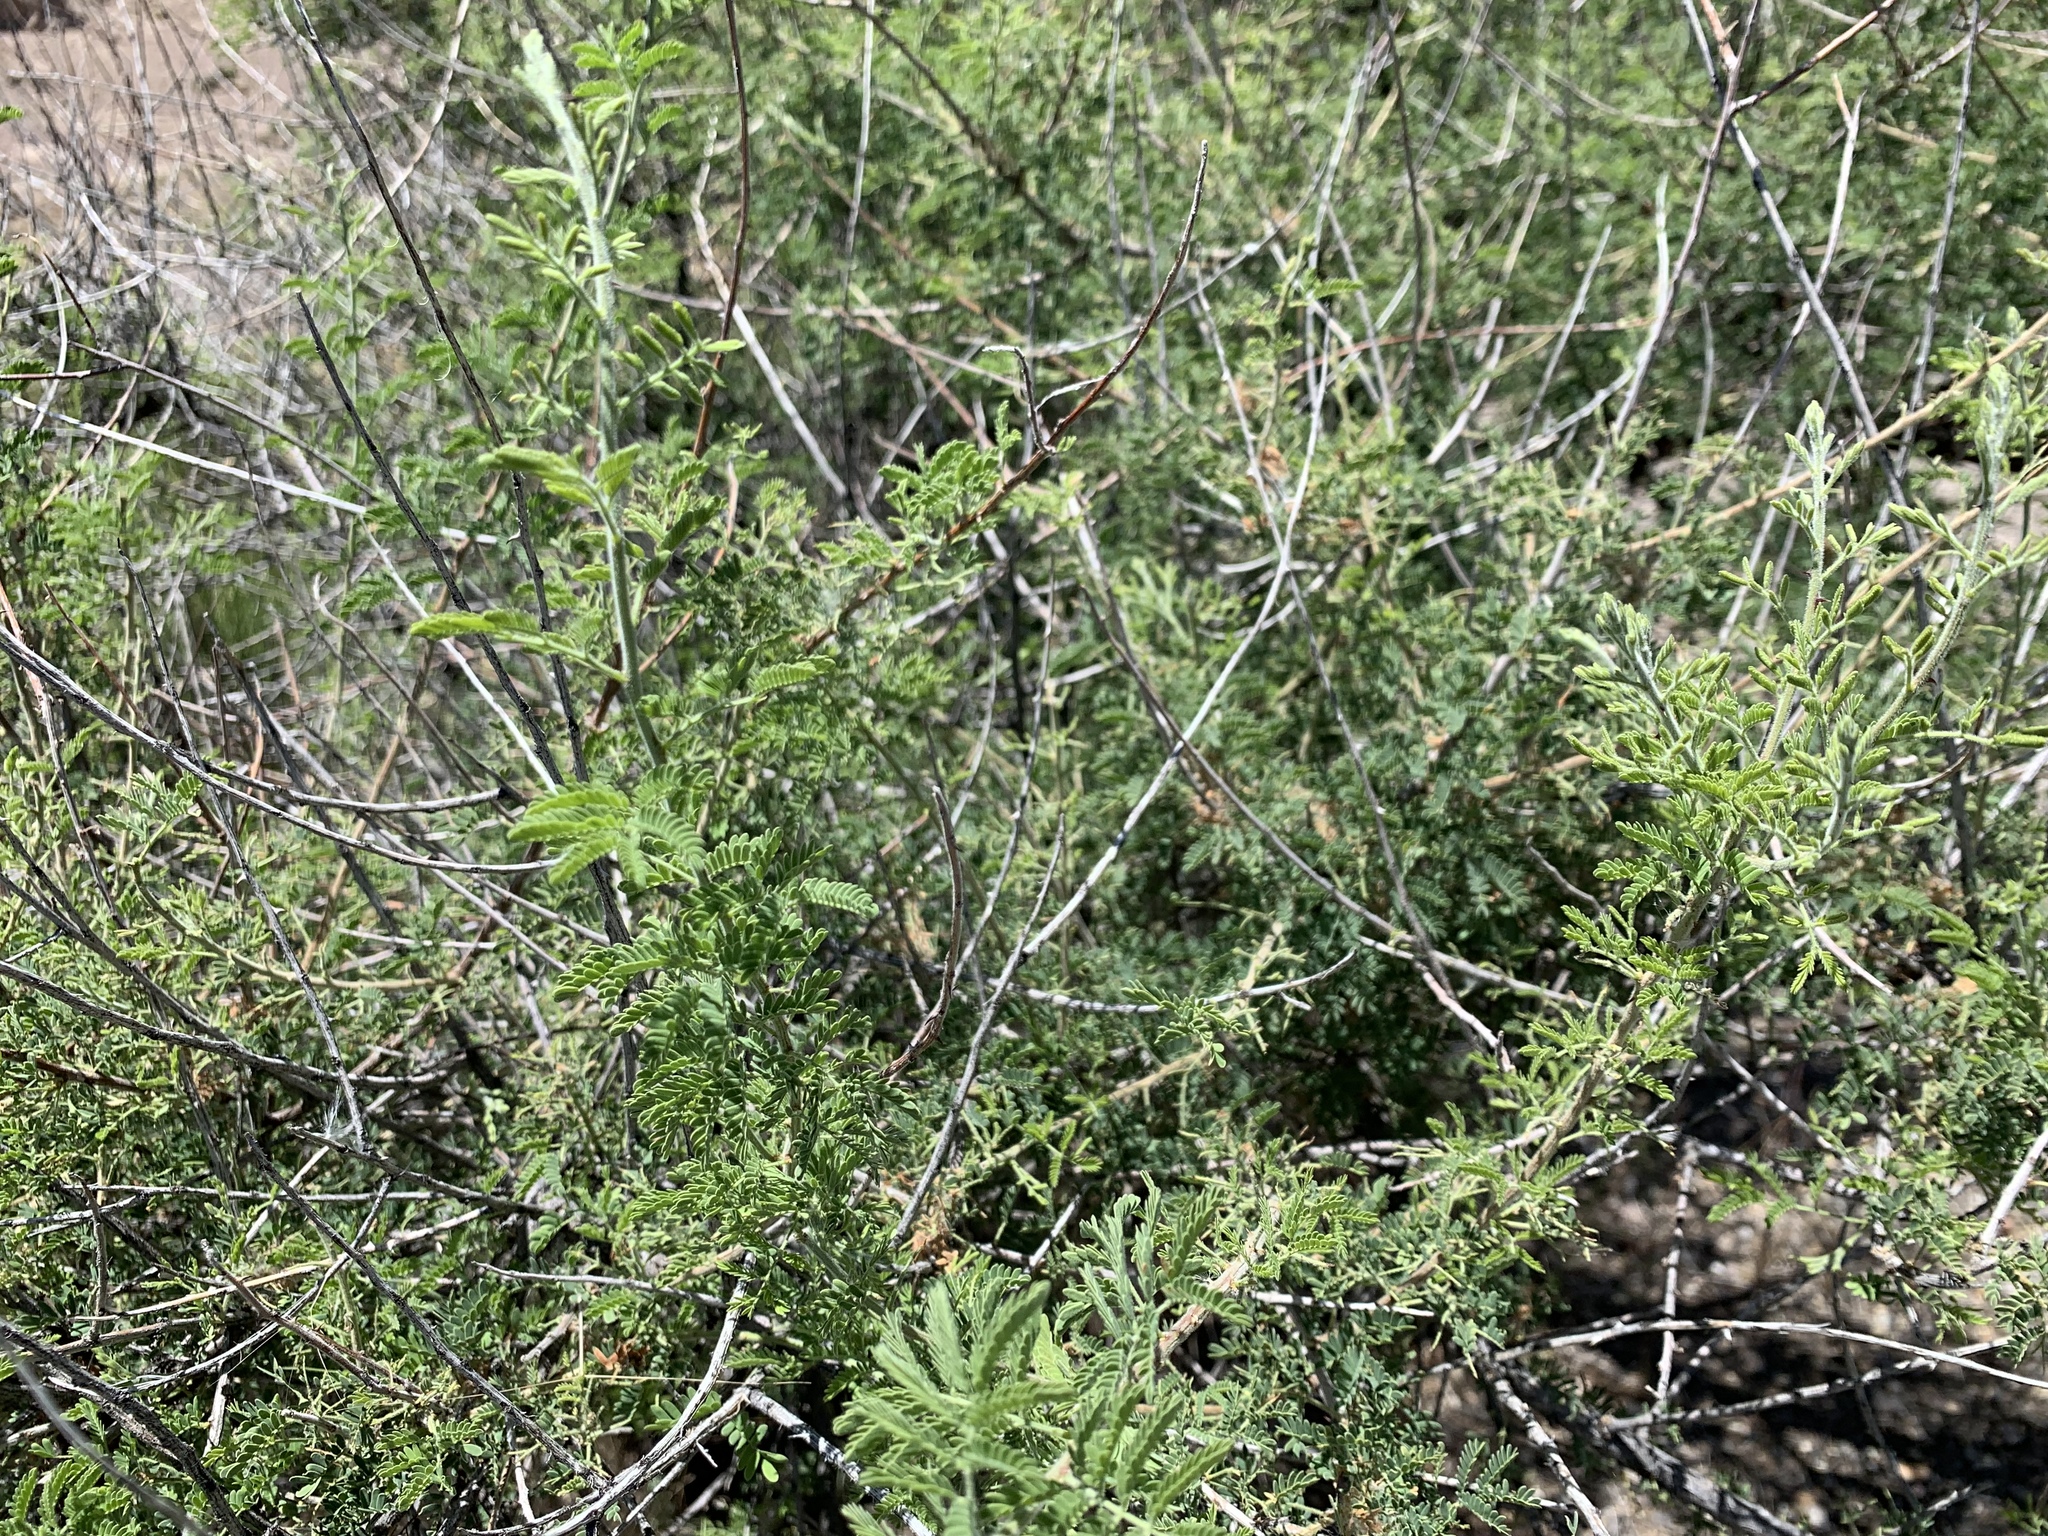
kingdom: Plantae
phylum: Tracheophyta
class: Magnoliopsida
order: Fabales
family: Fabaceae
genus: Senegalia
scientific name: Senegalia greggii
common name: Texas-mimosa
